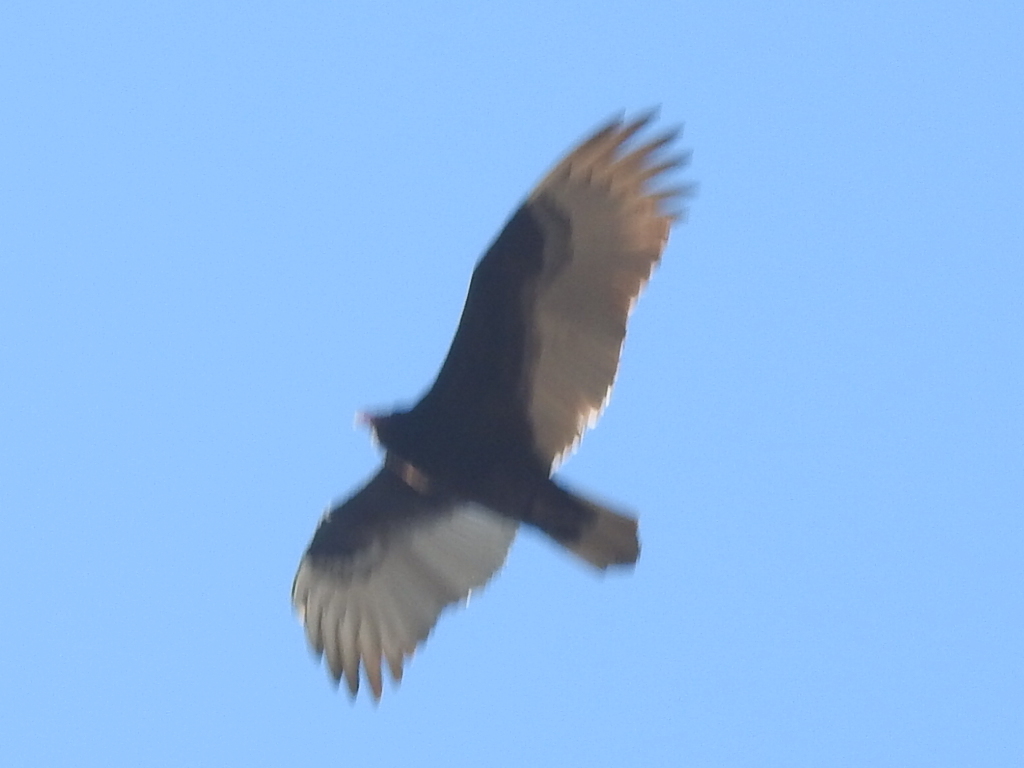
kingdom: Animalia
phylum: Chordata
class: Aves
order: Accipitriformes
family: Cathartidae
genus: Cathartes
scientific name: Cathartes aura
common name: Turkey vulture
